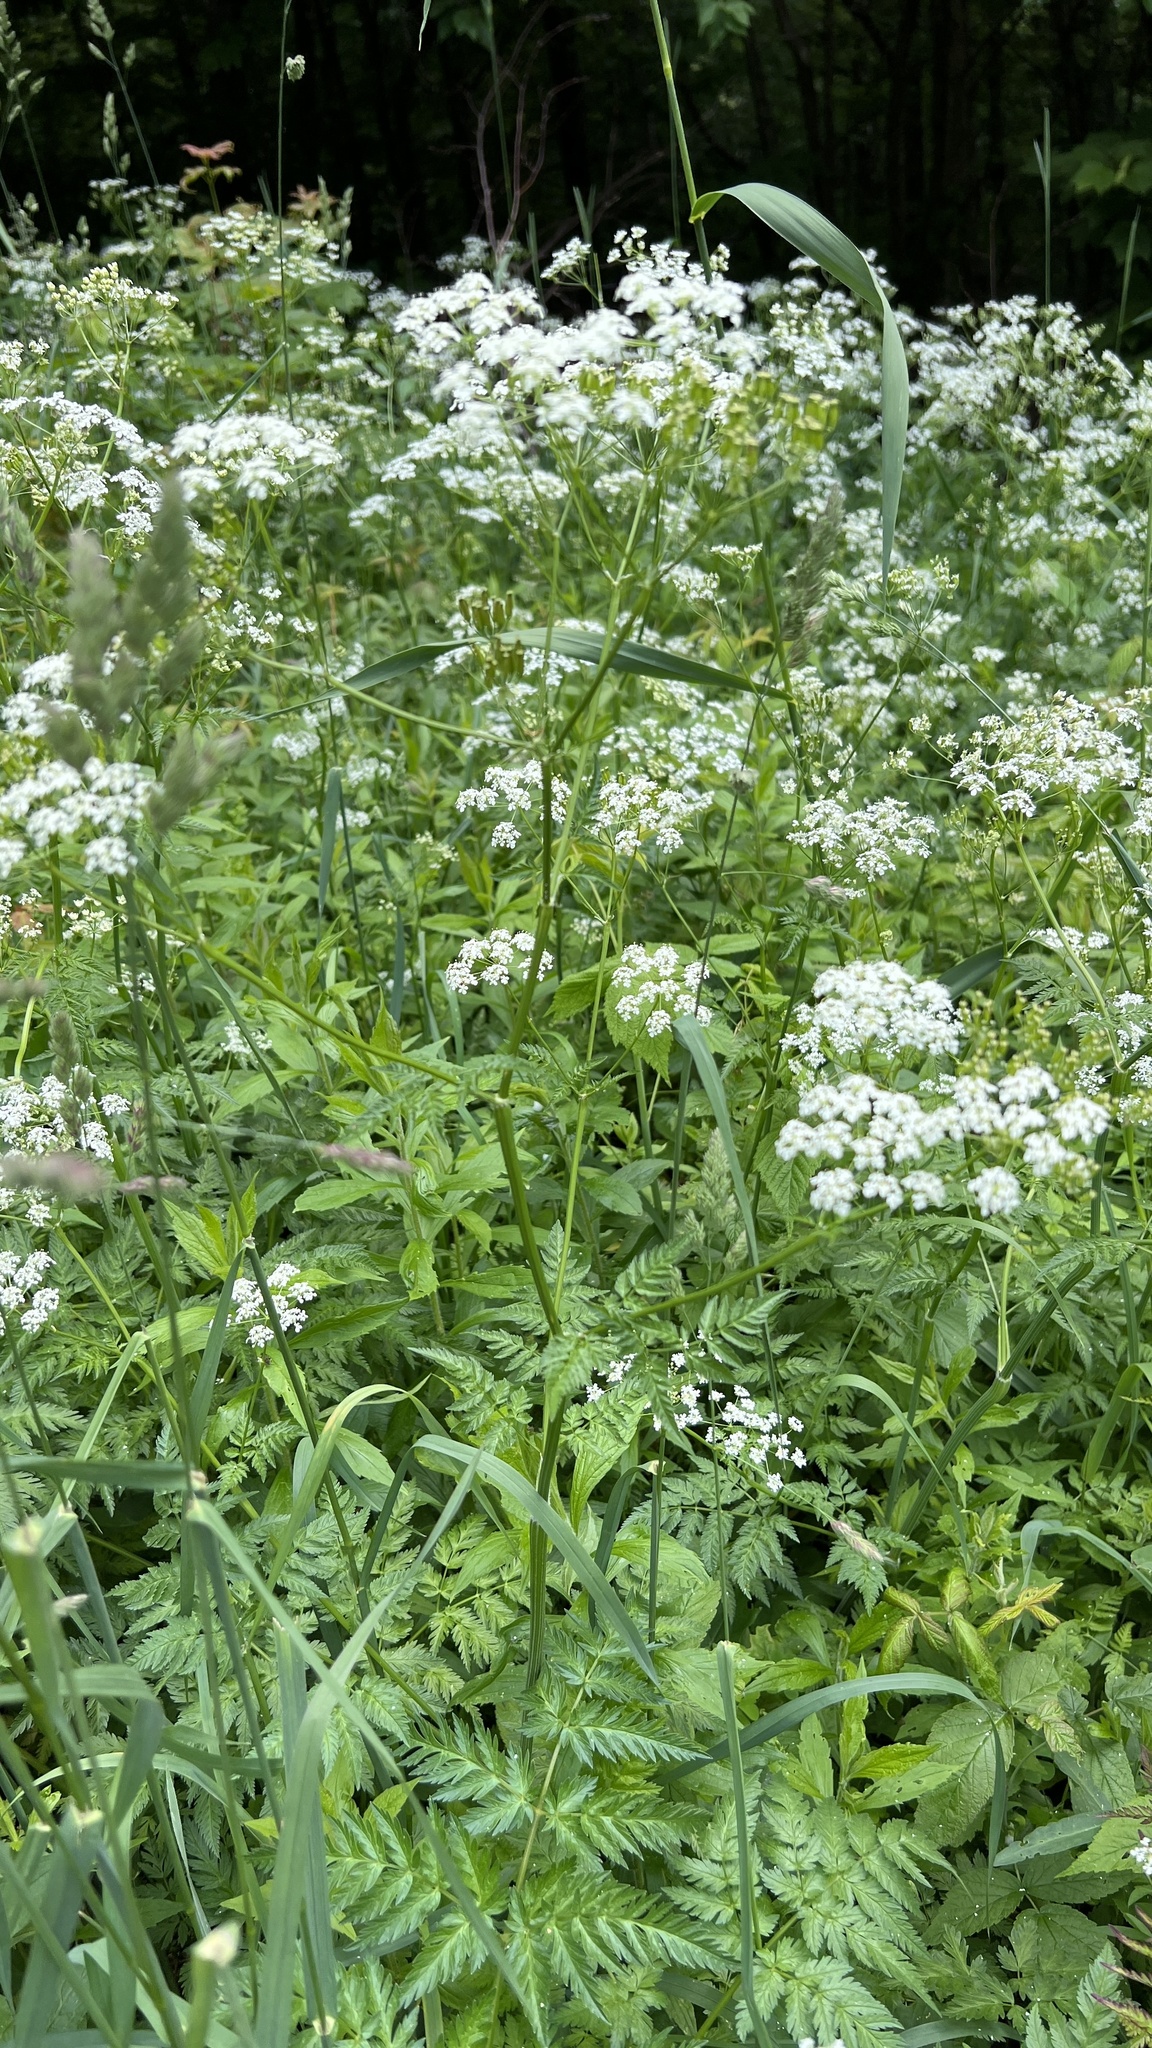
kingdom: Plantae
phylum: Tracheophyta
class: Magnoliopsida
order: Apiales
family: Apiaceae
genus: Anthriscus
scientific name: Anthriscus sylvestris
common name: Cow parsley
